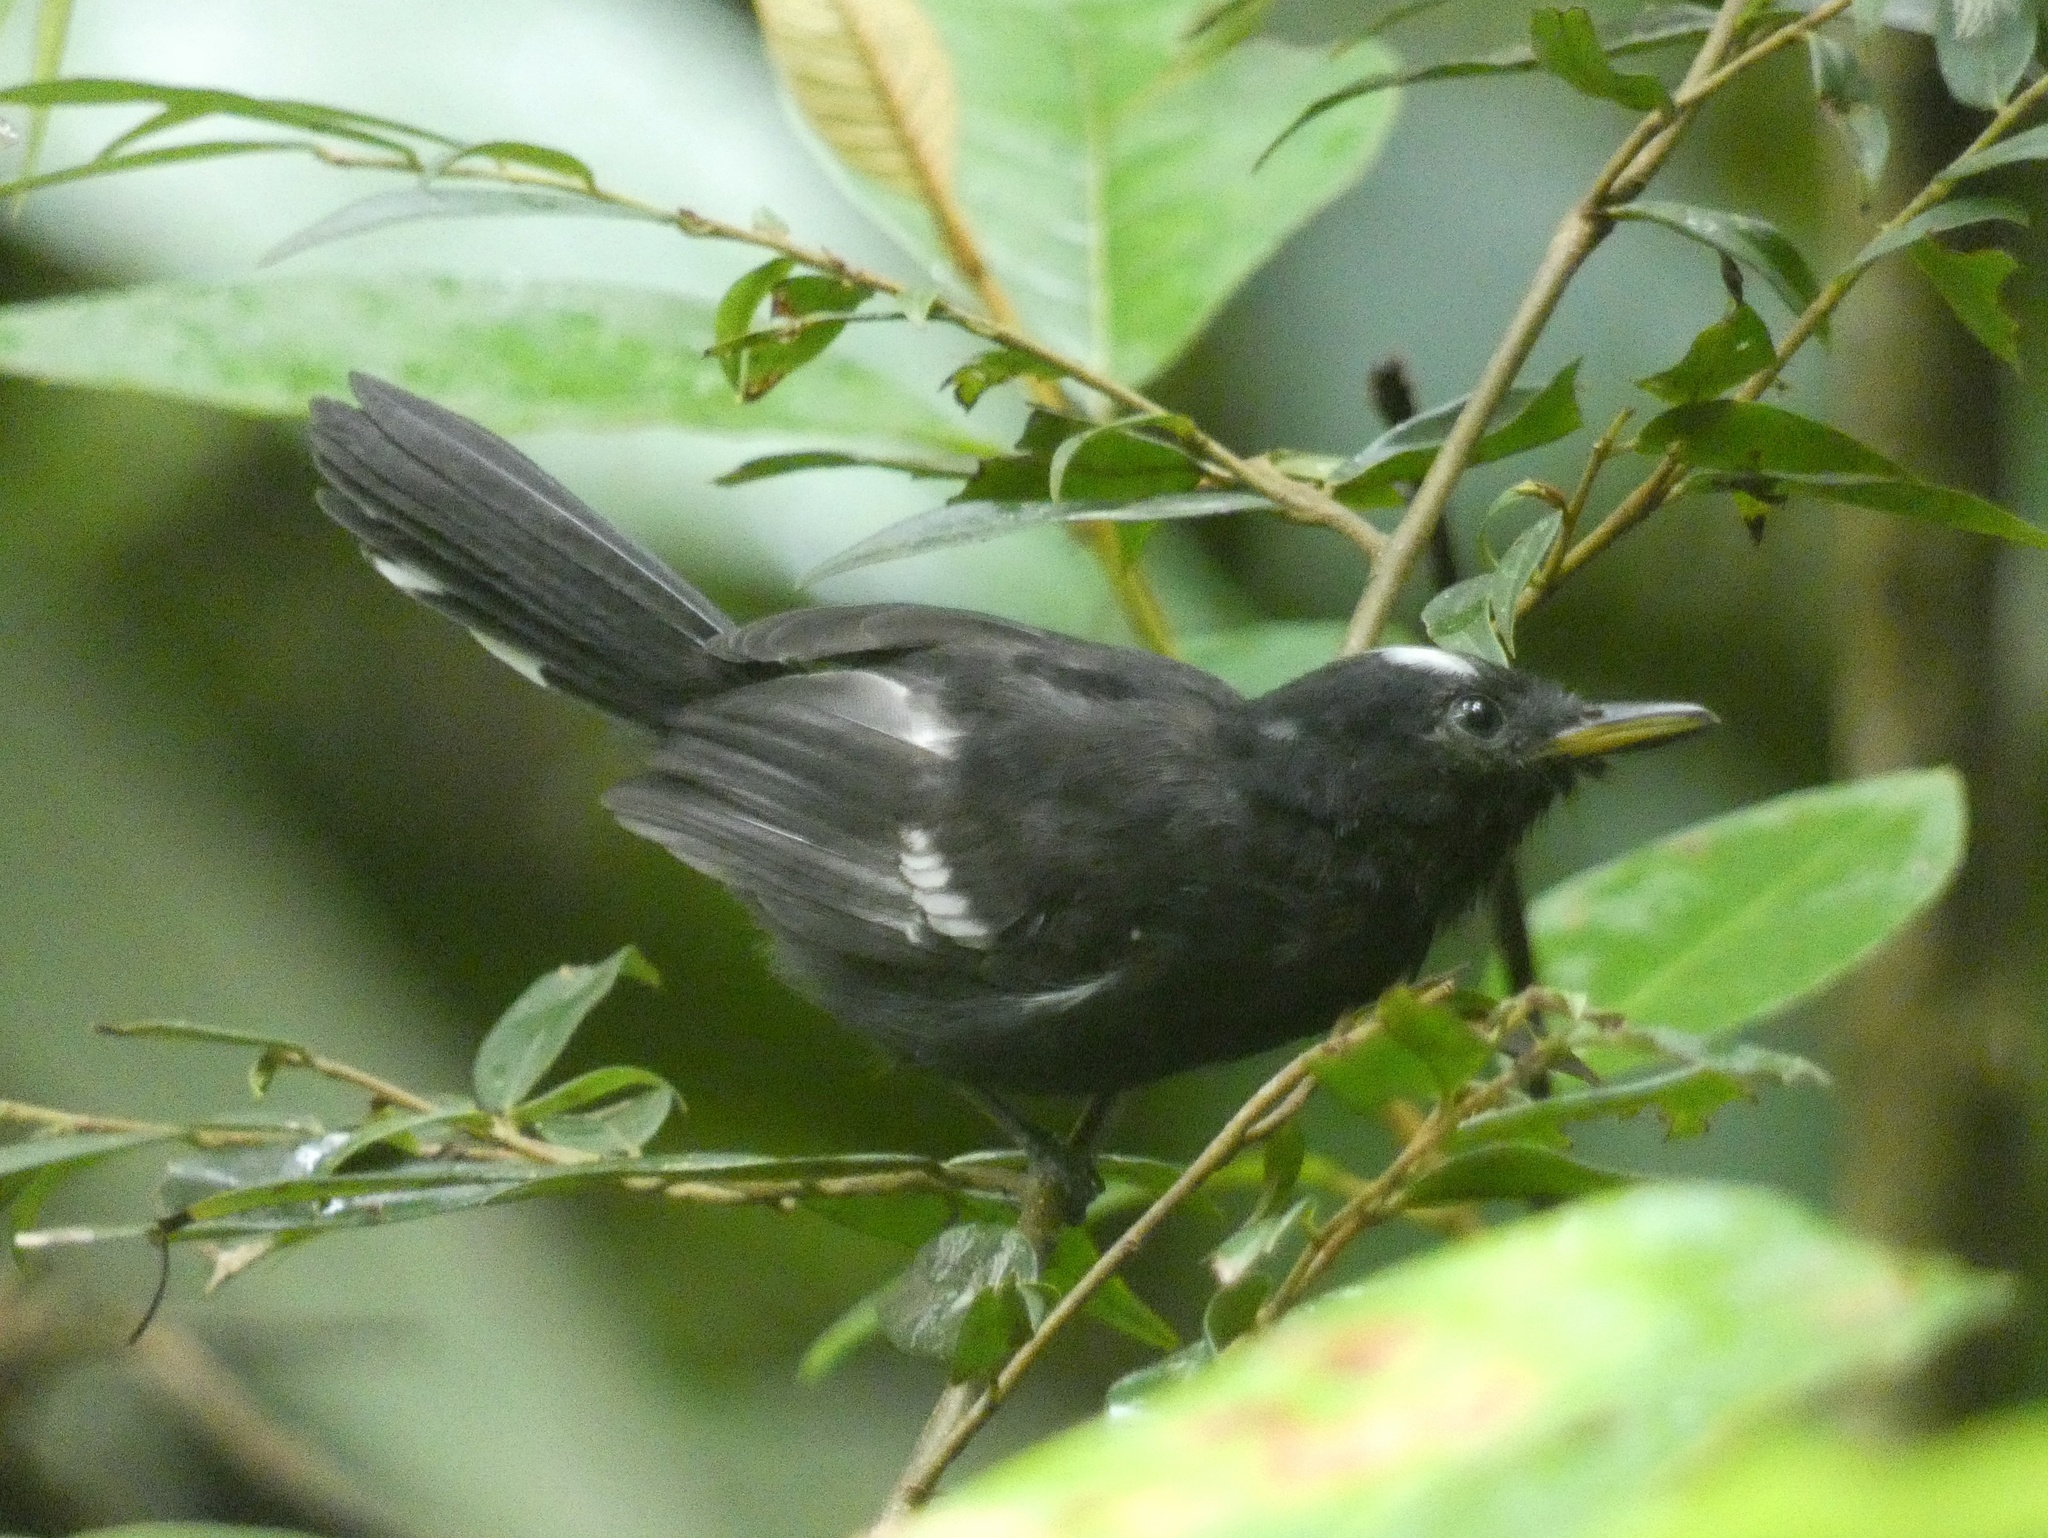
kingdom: Animalia
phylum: Chordata
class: Aves
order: Passeriformes
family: Thamnophilidae
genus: Microrhopias
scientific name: Microrhopias quixensis
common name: Dot-winged antwren
